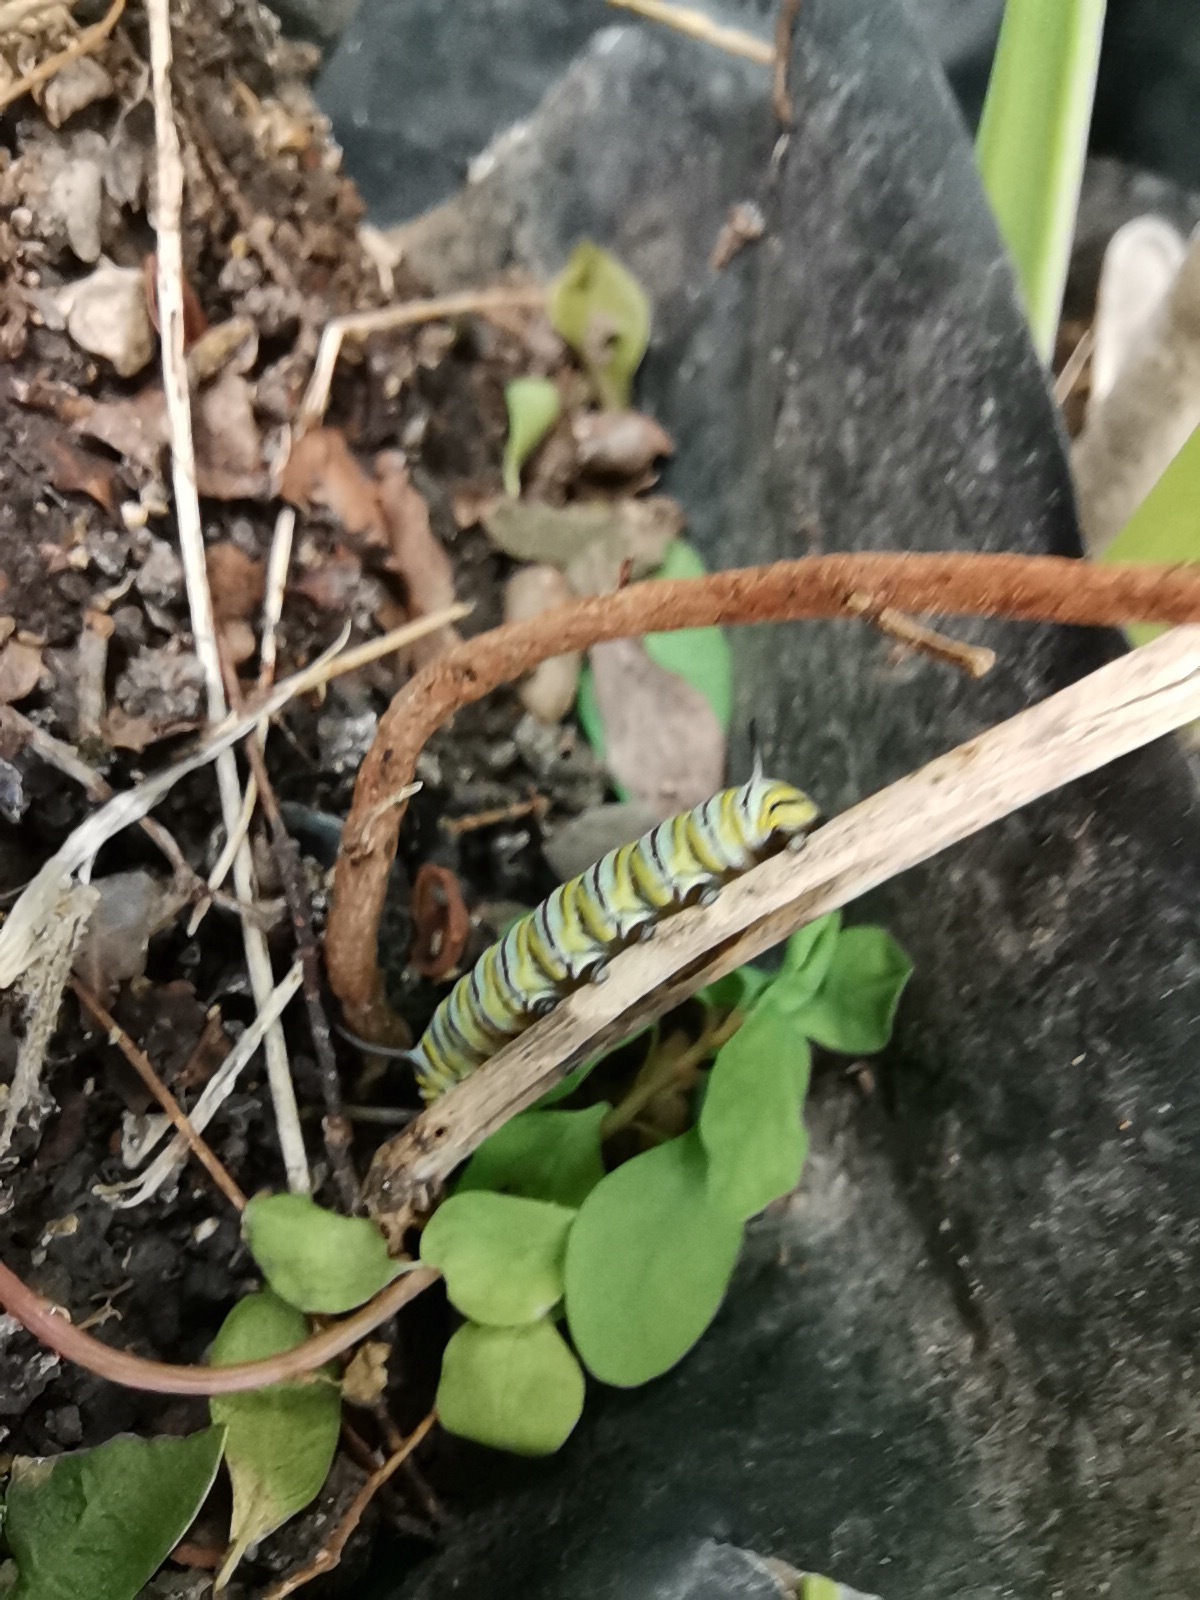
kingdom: Animalia
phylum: Arthropoda
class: Insecta
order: Lepidoptera
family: Nymphalidae
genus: Danaus
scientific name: Danaus plexippus
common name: Monarch
